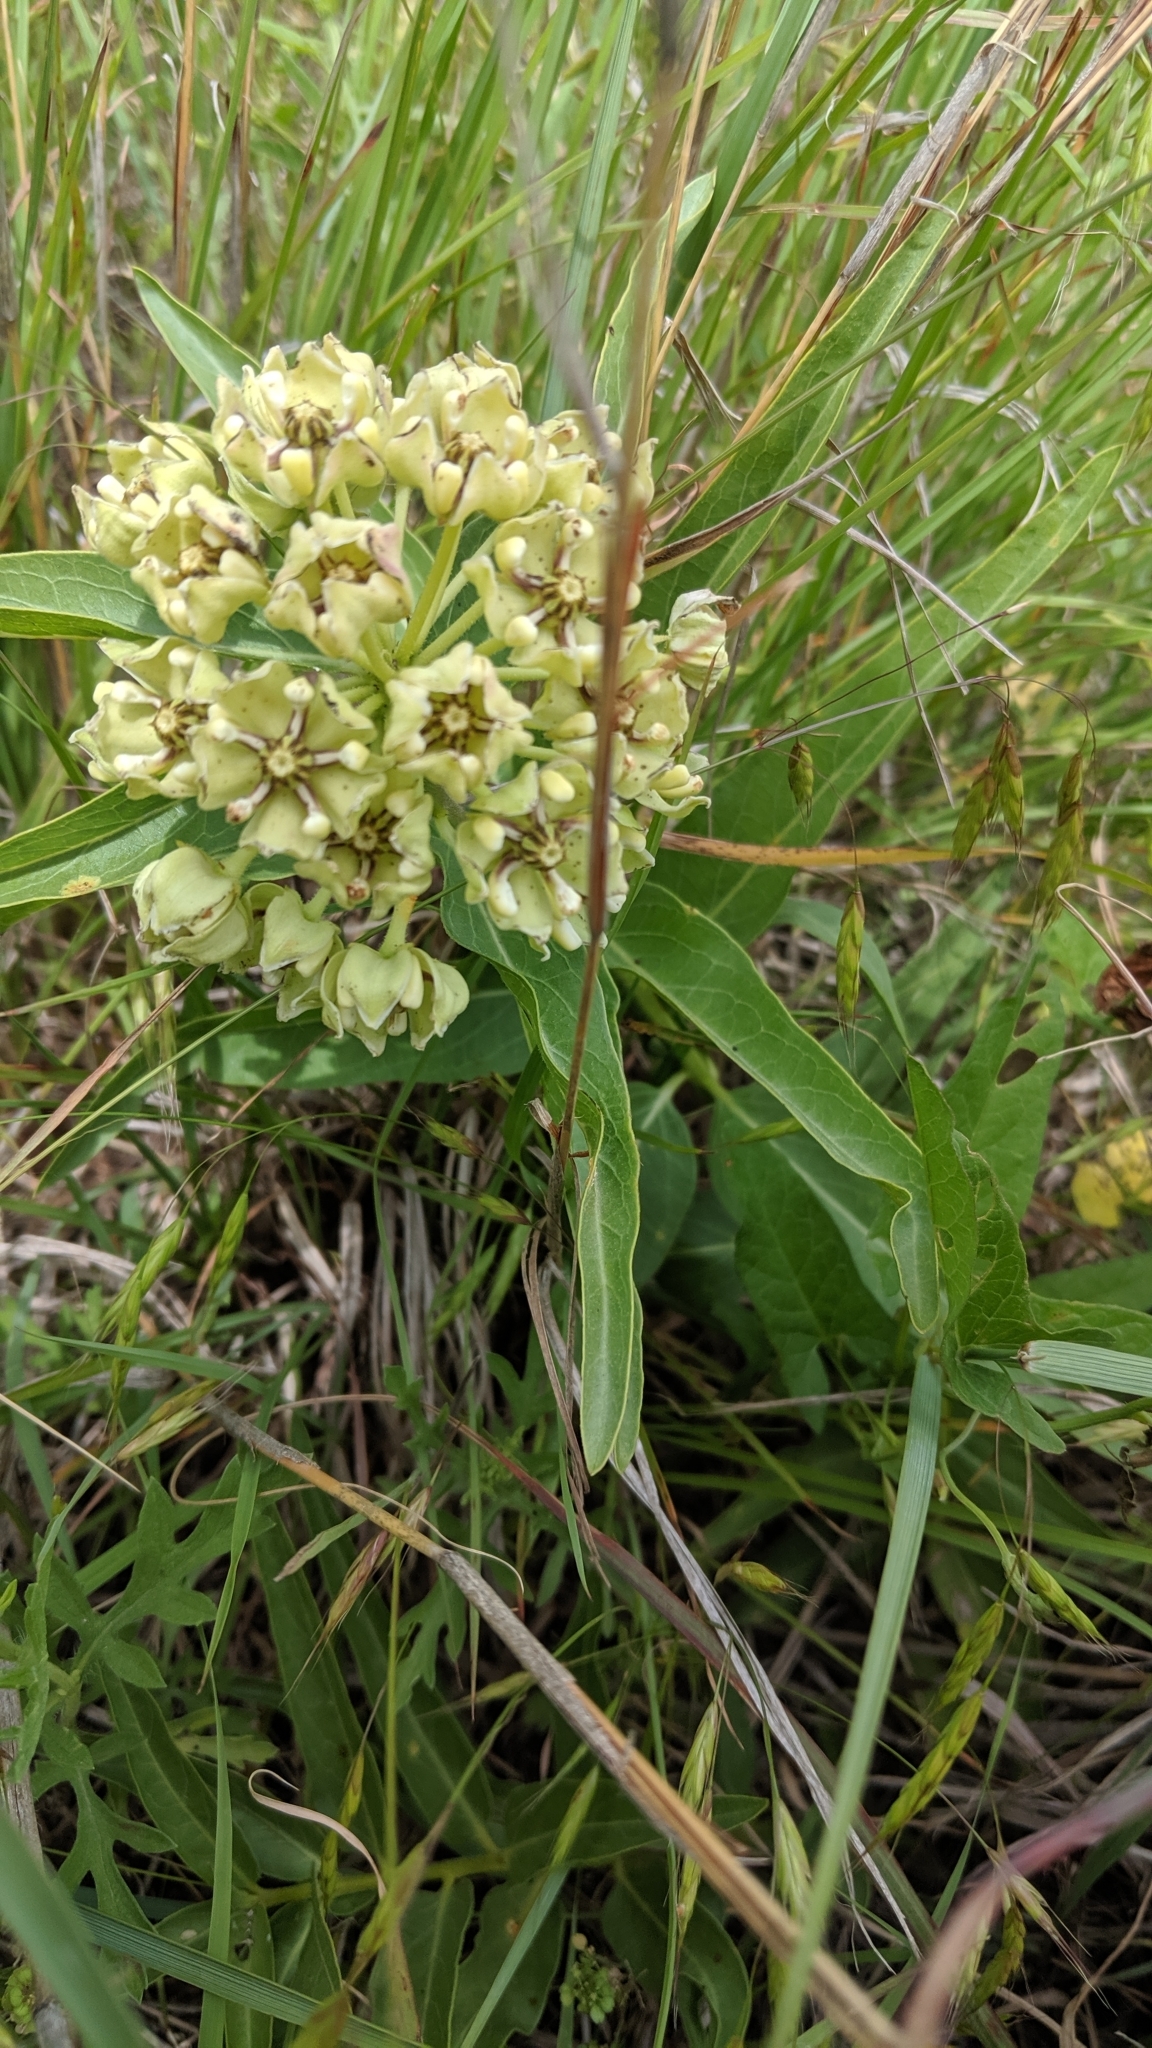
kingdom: Plantae
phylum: Tracheophyta
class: Magnoliopsida
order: Gentianales
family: Apocynaceae
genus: Asclepias
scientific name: Asclepias asperula
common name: Antelope horns
